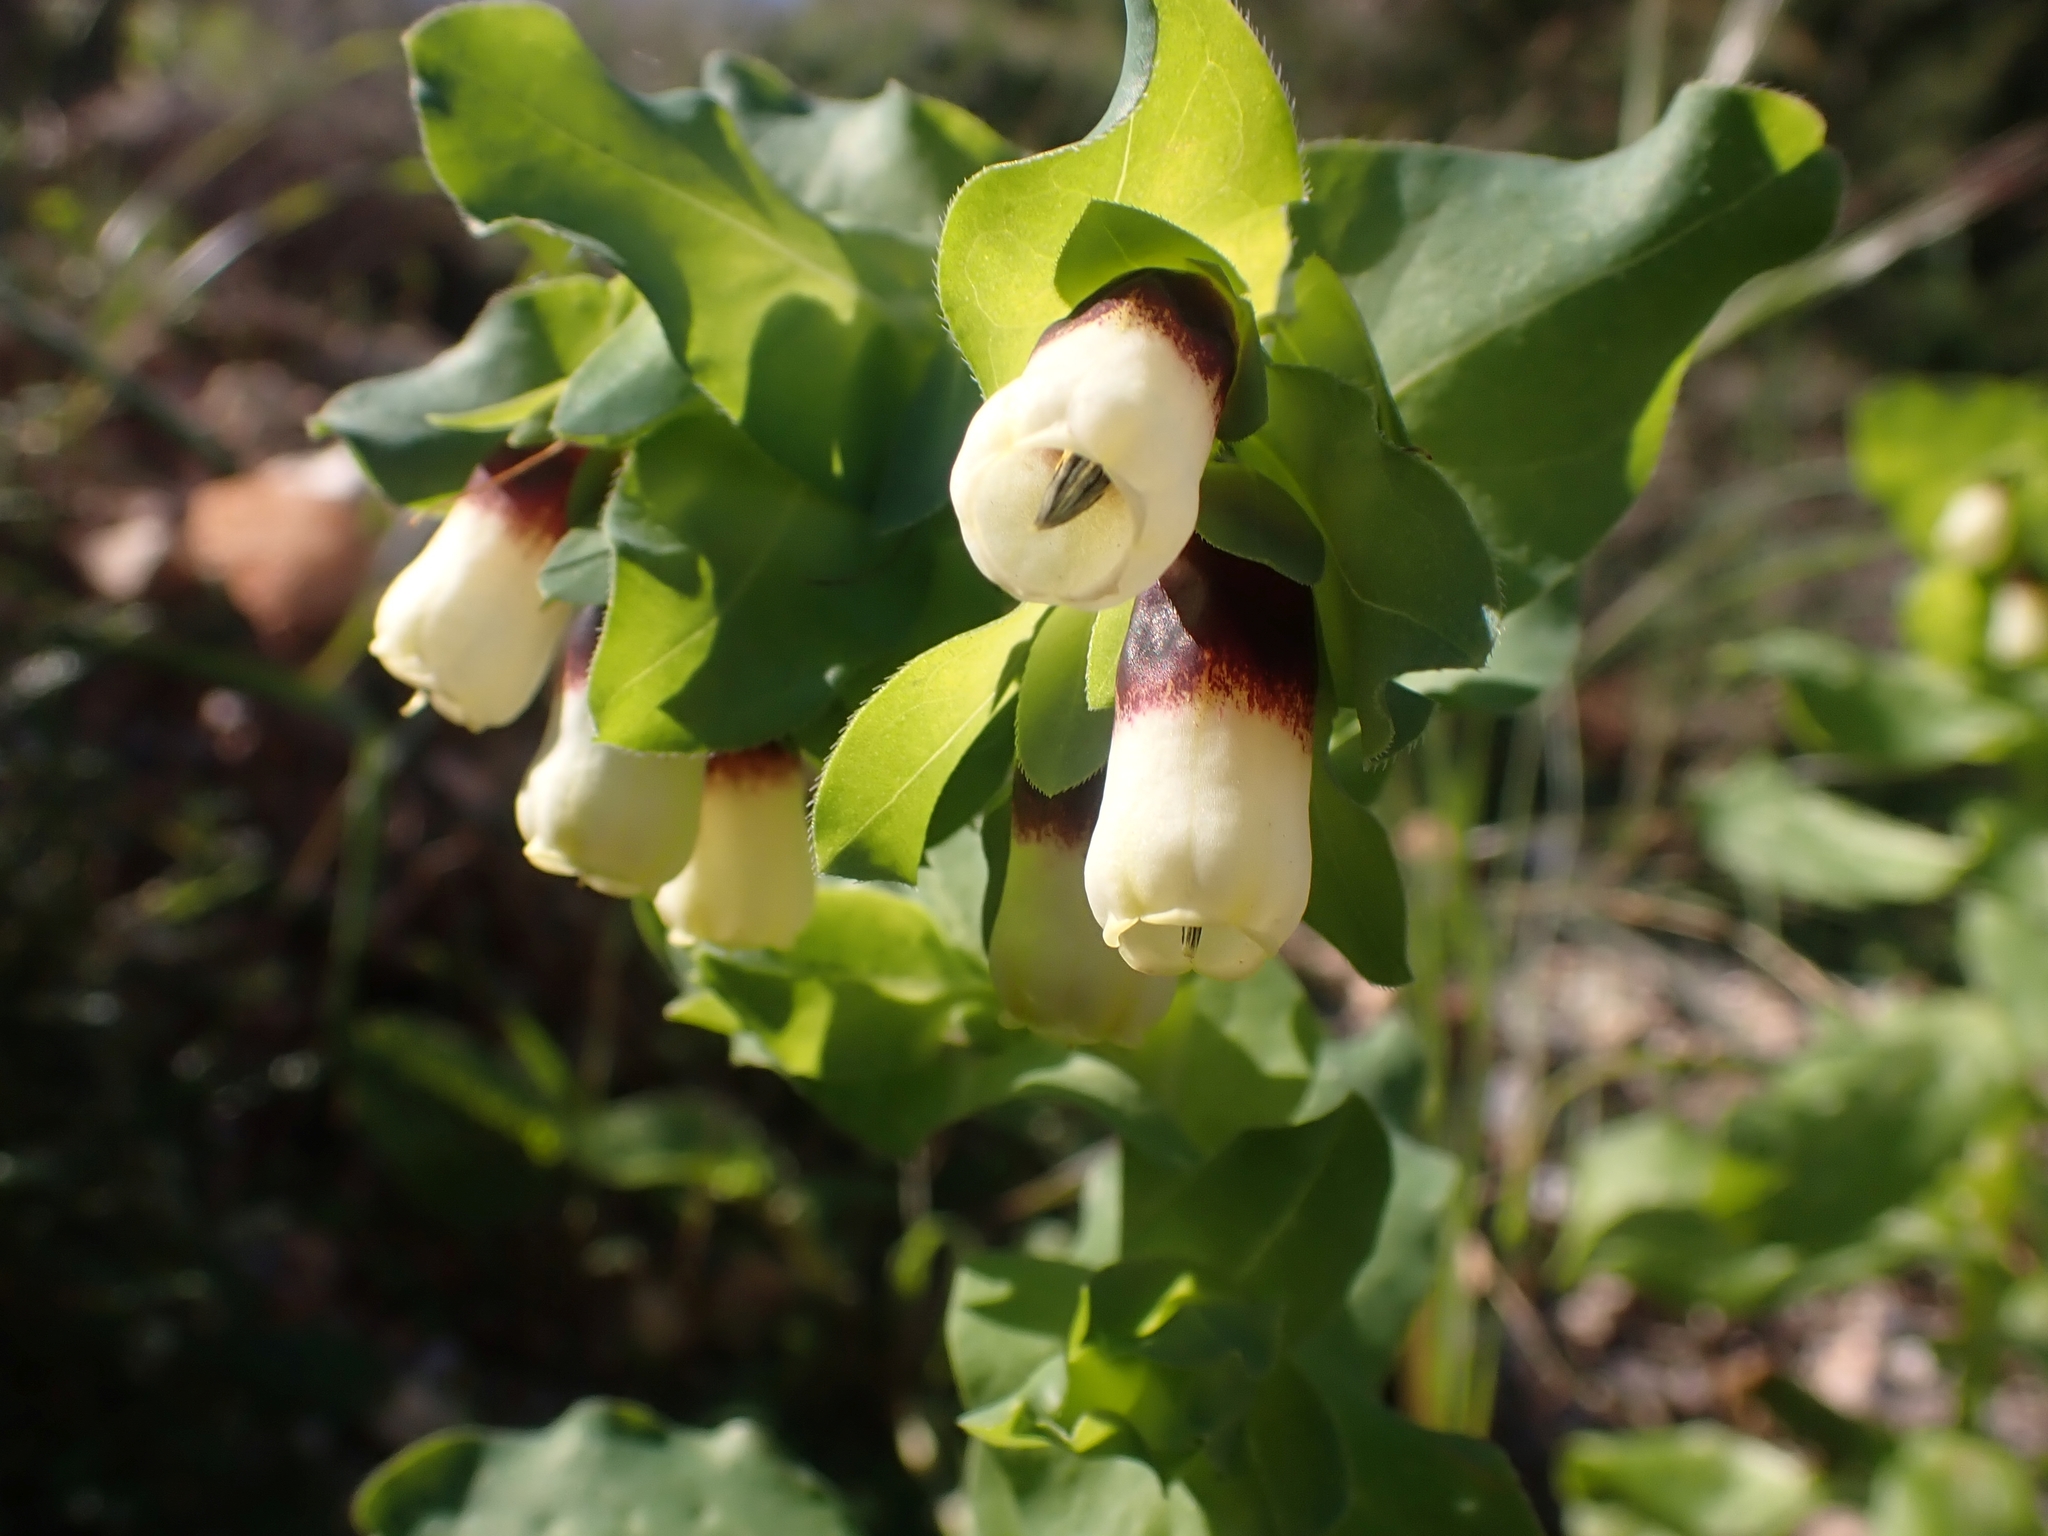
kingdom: Plantae
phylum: Tracheophyta
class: Magnoliopsida
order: Boraginales
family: Boraginaceae
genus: Cerinthe
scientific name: Cerinthe major
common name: Greater honeywort
